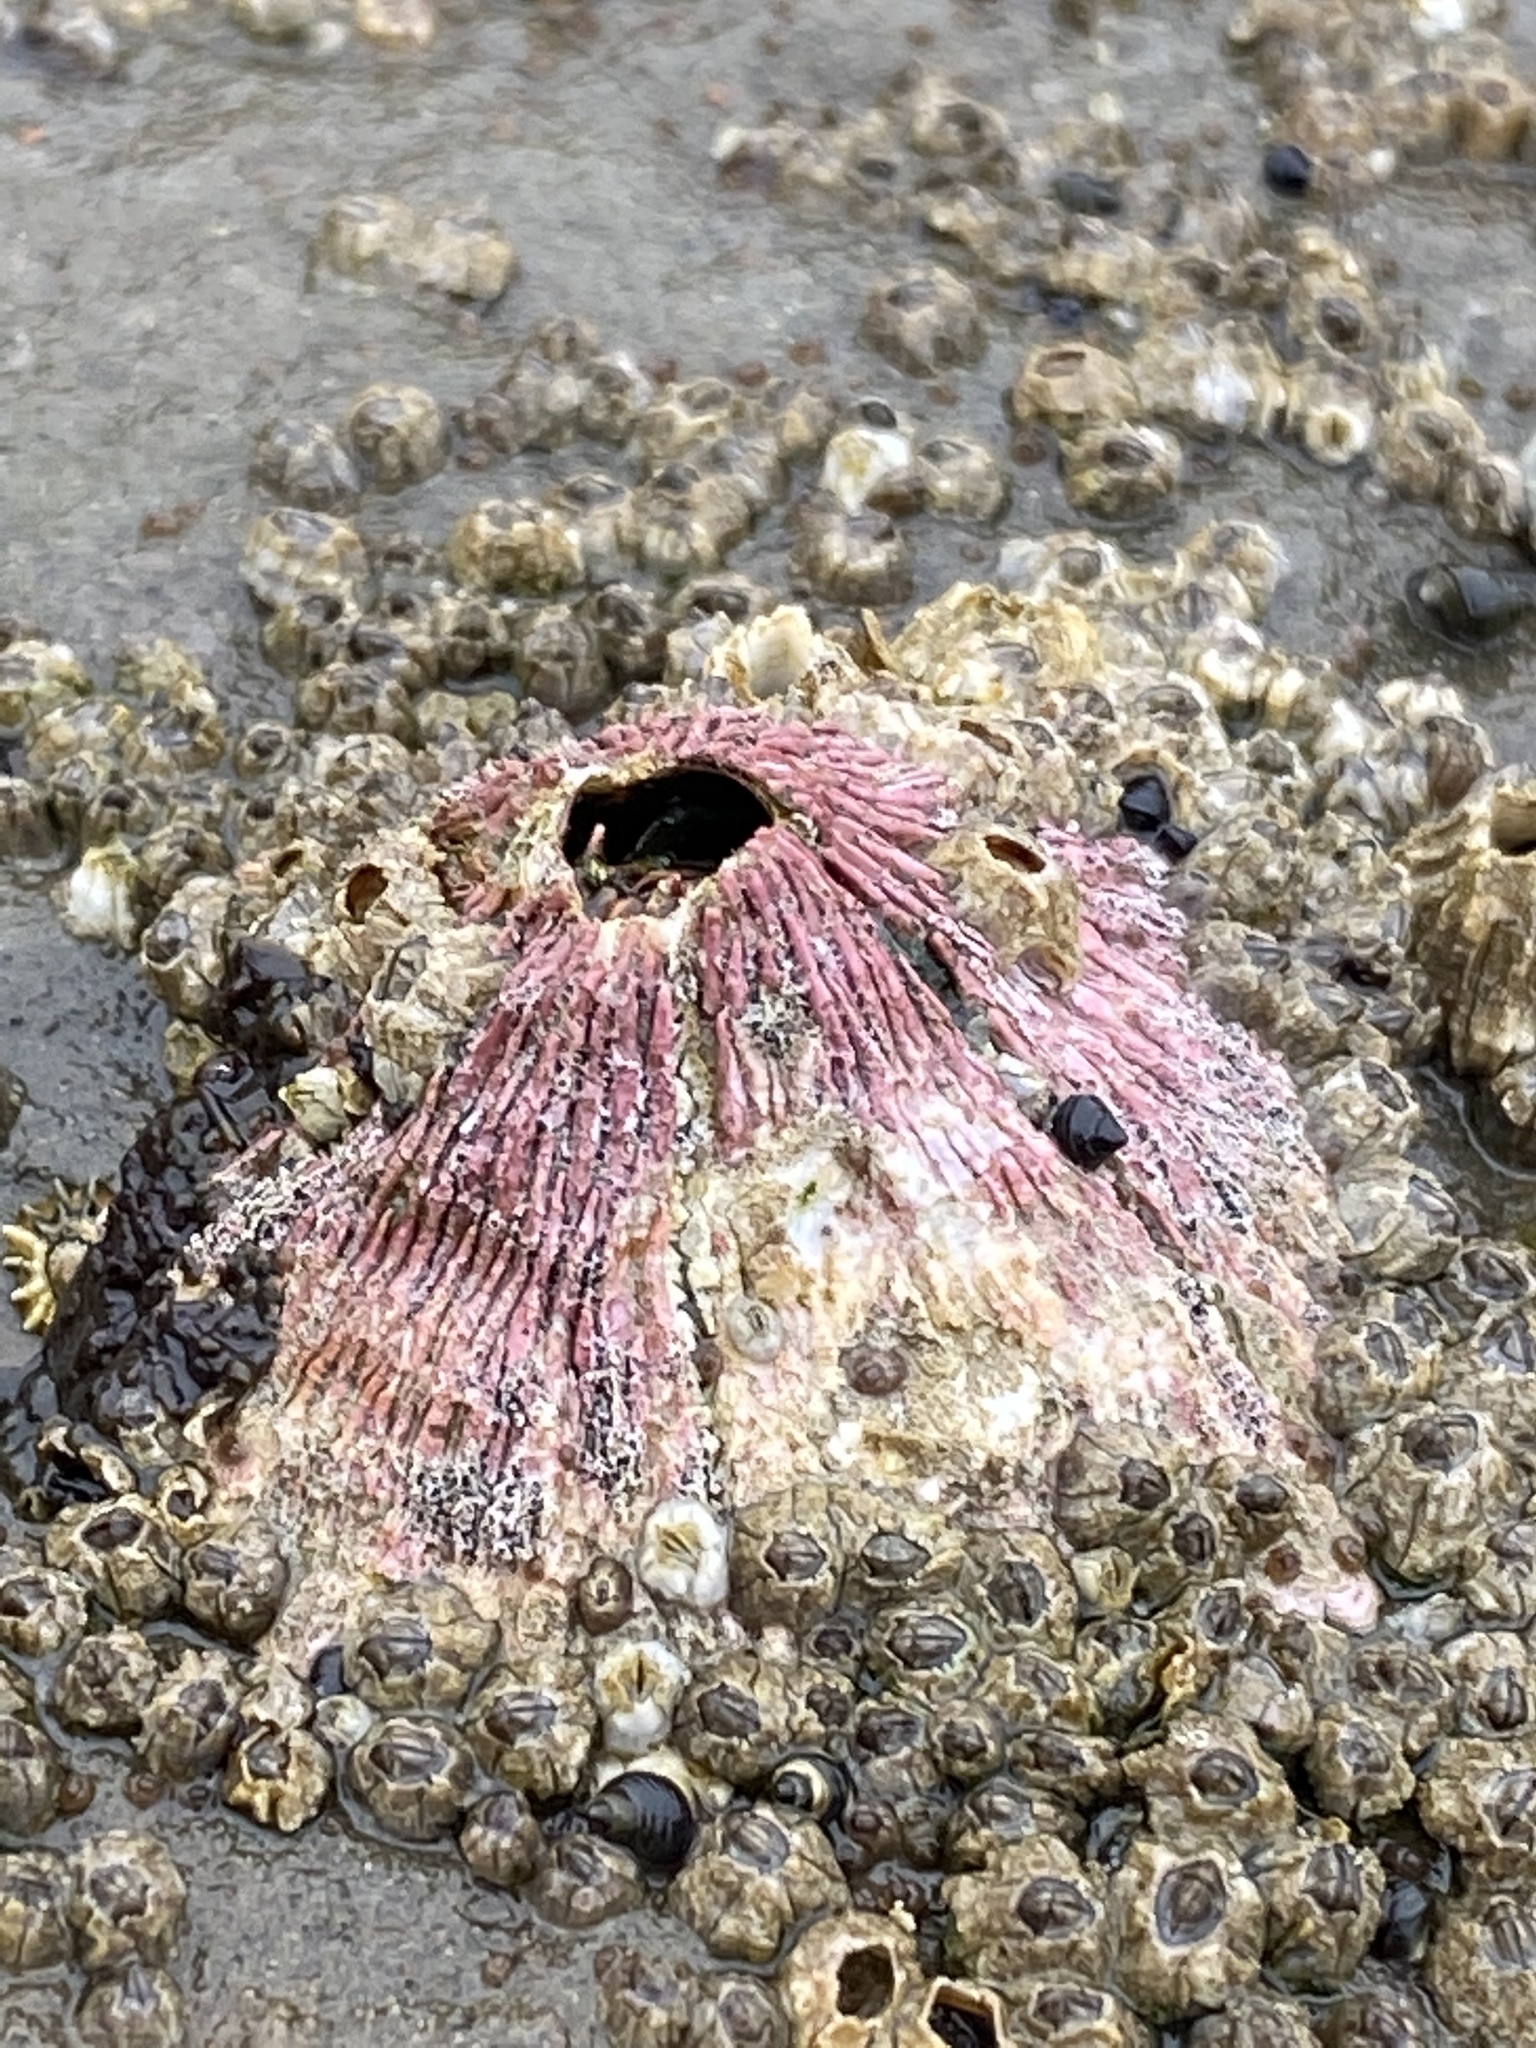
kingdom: Animalia
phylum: Arthropoda
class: Maxillopoda
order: Sessilia
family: Tetraclitidae
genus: Tetraclita
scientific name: Tetraclita rubescens
